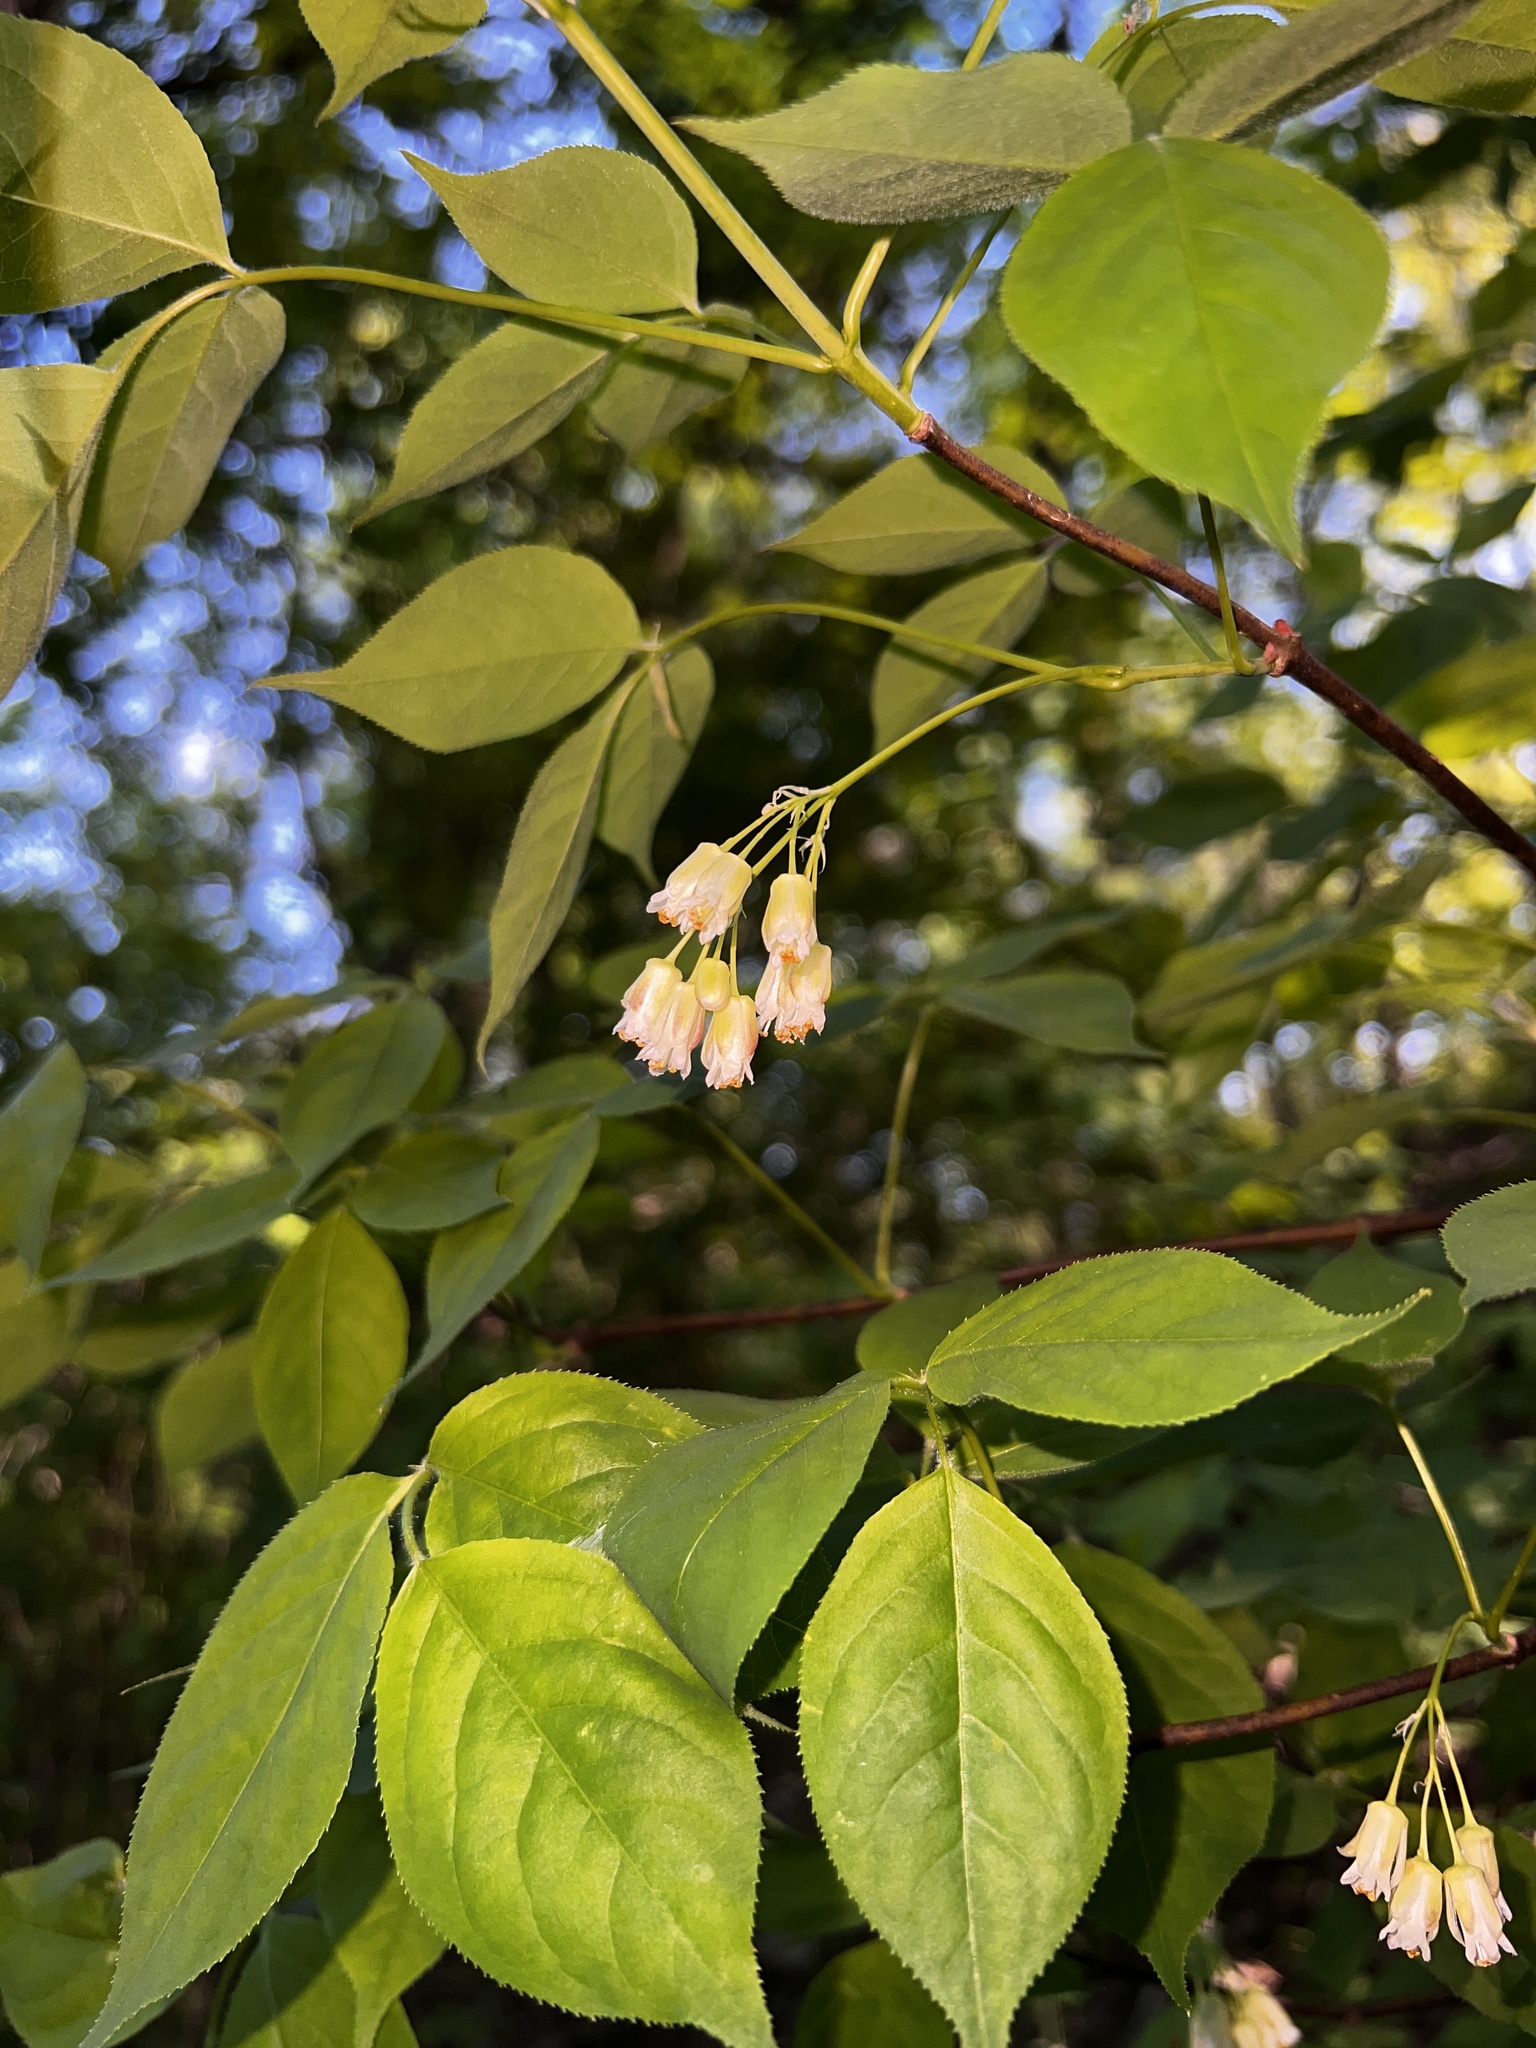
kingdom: Plantae
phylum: Tracheophyta
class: Magnoliopsida
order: Crossosomatales
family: Staphyleaceae
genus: Staphylea
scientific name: Staphylea trifolia
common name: American bladdernut
